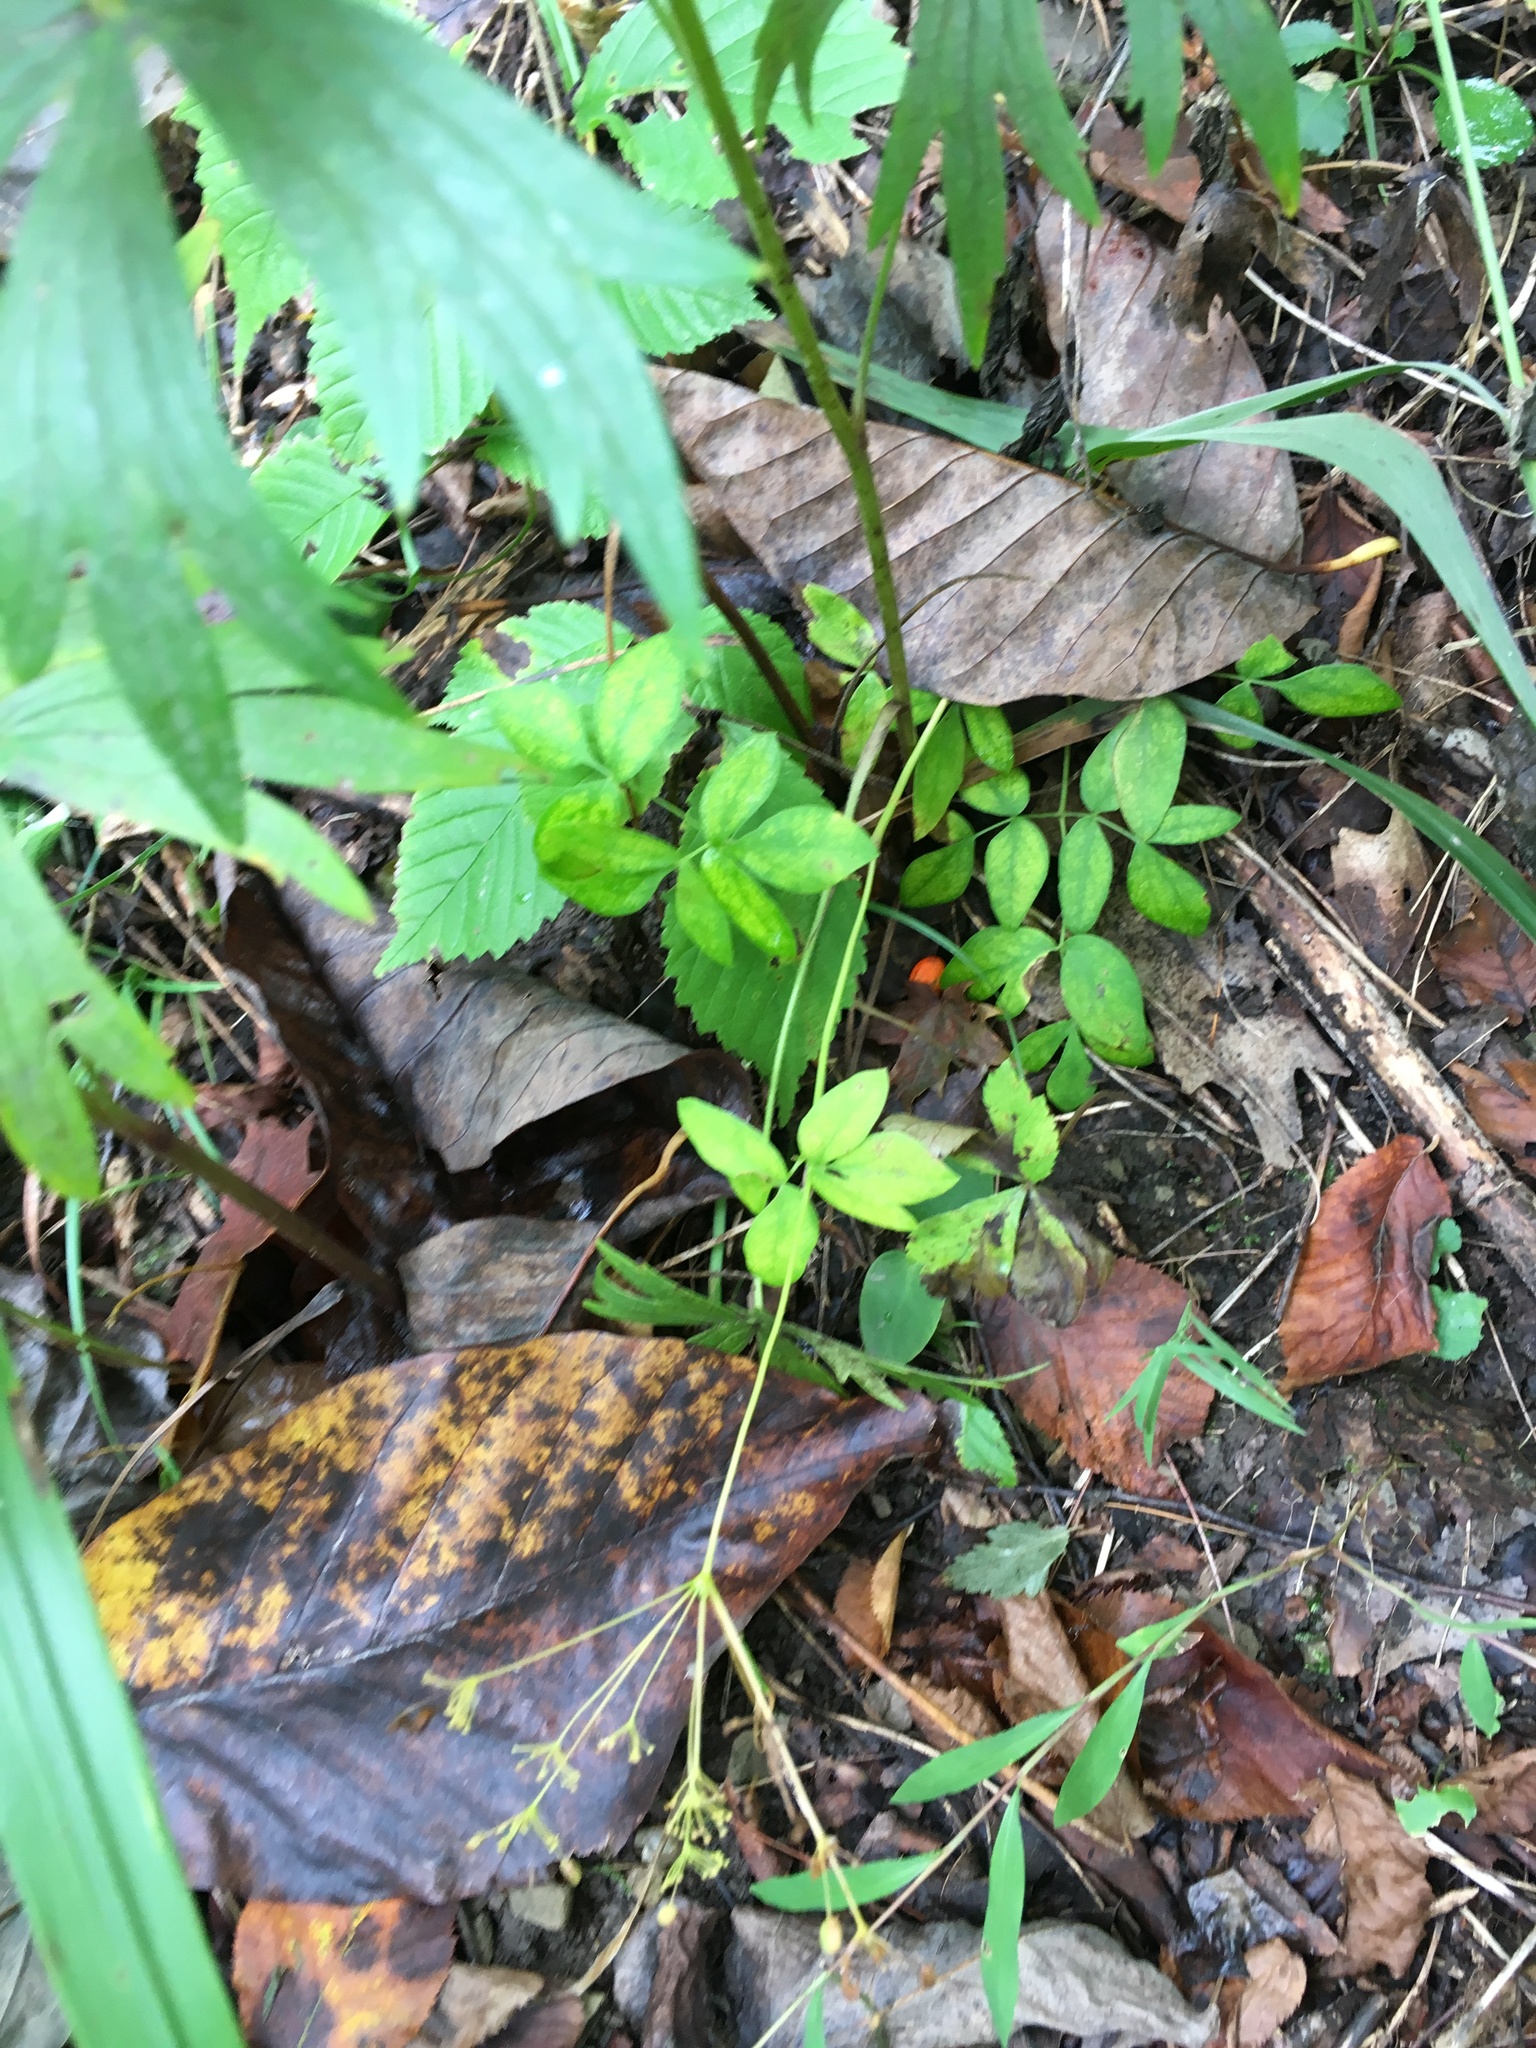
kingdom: Plantae
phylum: Tracheophyta
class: Magnoliopsida
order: Apiales
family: Apiaceae
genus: Taenidia
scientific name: Taenidia integerrima
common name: Golden alexander
